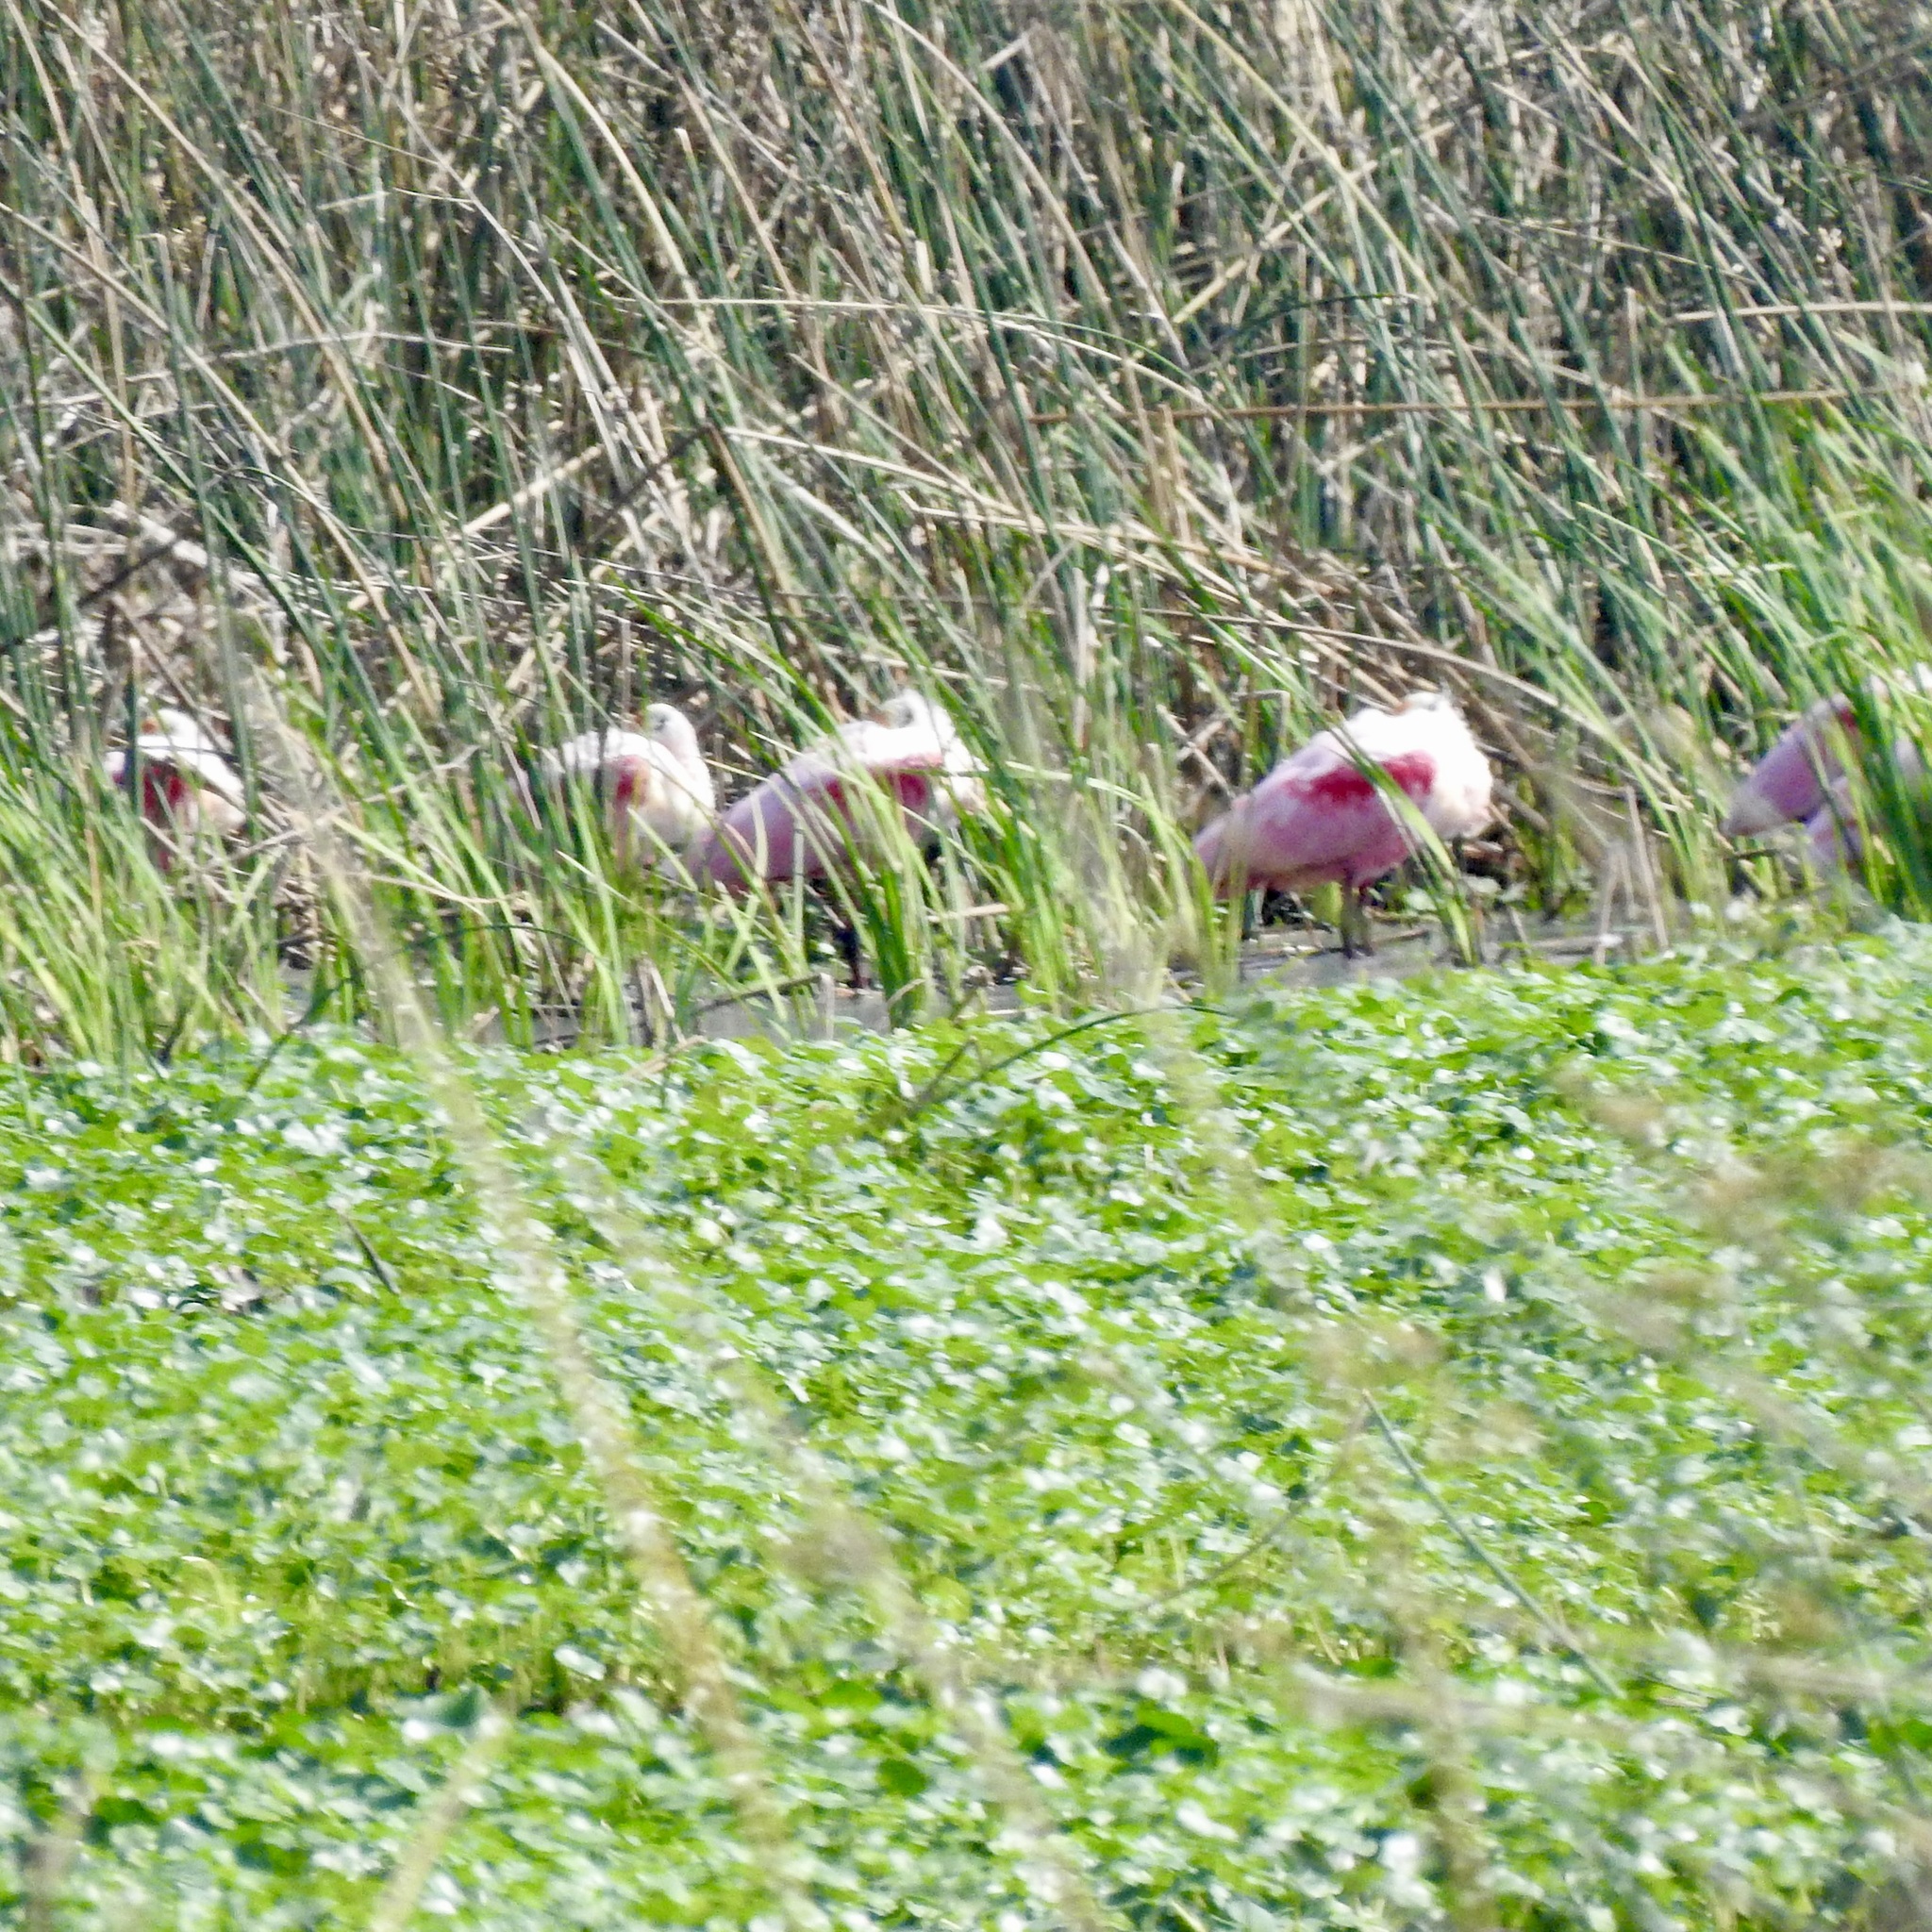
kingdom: Animalia
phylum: Chordata
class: Aves
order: Pelecaniformes
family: Threskiornithidae
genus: Platalea
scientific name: Platalea ajaja
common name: Roseate spoonbill
